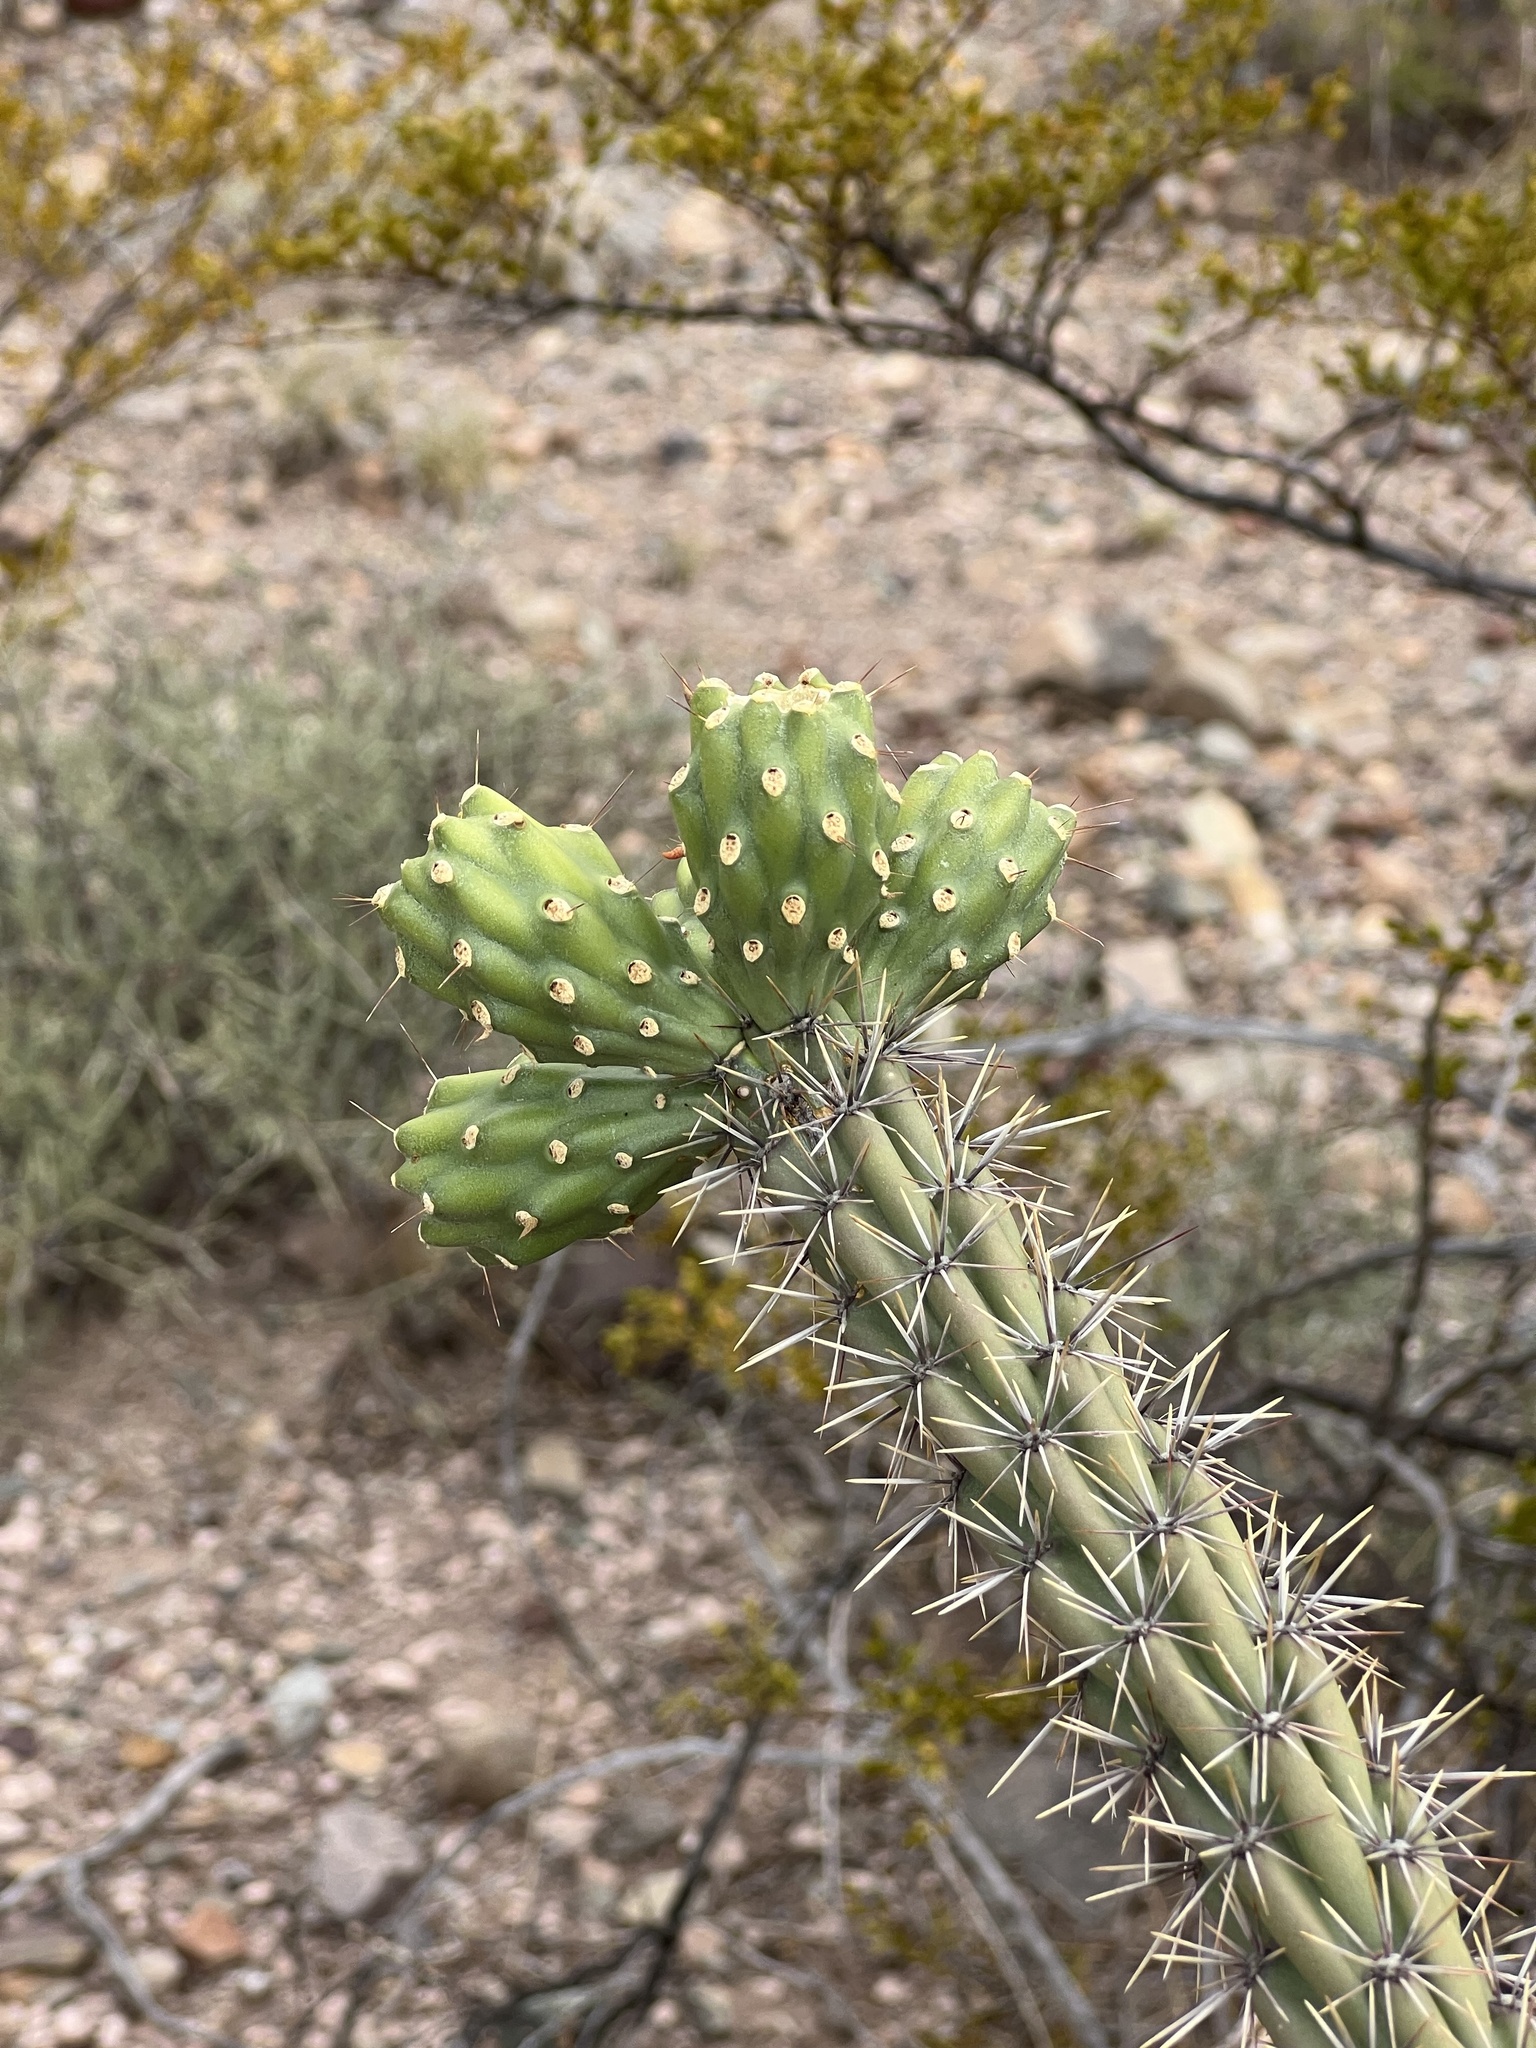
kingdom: Plantae
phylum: Tracheophyta
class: Magnoliopsida
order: Caryophyllales
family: Cactaceae
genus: Cylindropuntia
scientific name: Cylindropuntia thurberi
